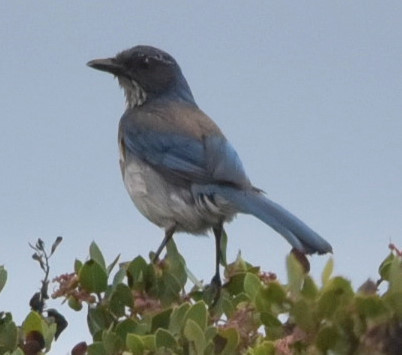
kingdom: Animalia
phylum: Chordata
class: Aves
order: Passeriformes
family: Corvidae
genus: Aphelocoma
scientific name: Aphelocoma californica
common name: California scrub-jay
